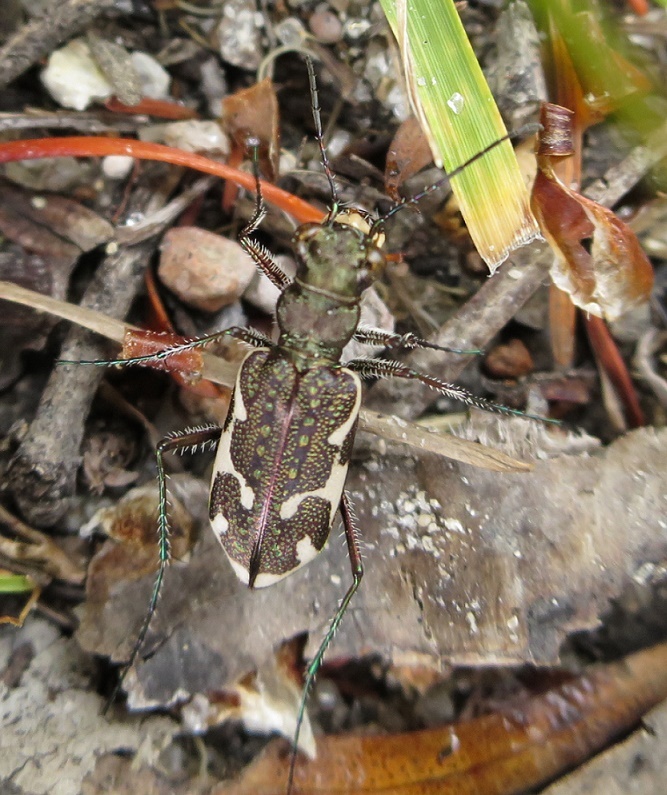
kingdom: Animalia
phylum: Arthropoda
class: Insecta
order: Coleoptera
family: Carabidae
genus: Neocicindela
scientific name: Neocicindela tuberculata
